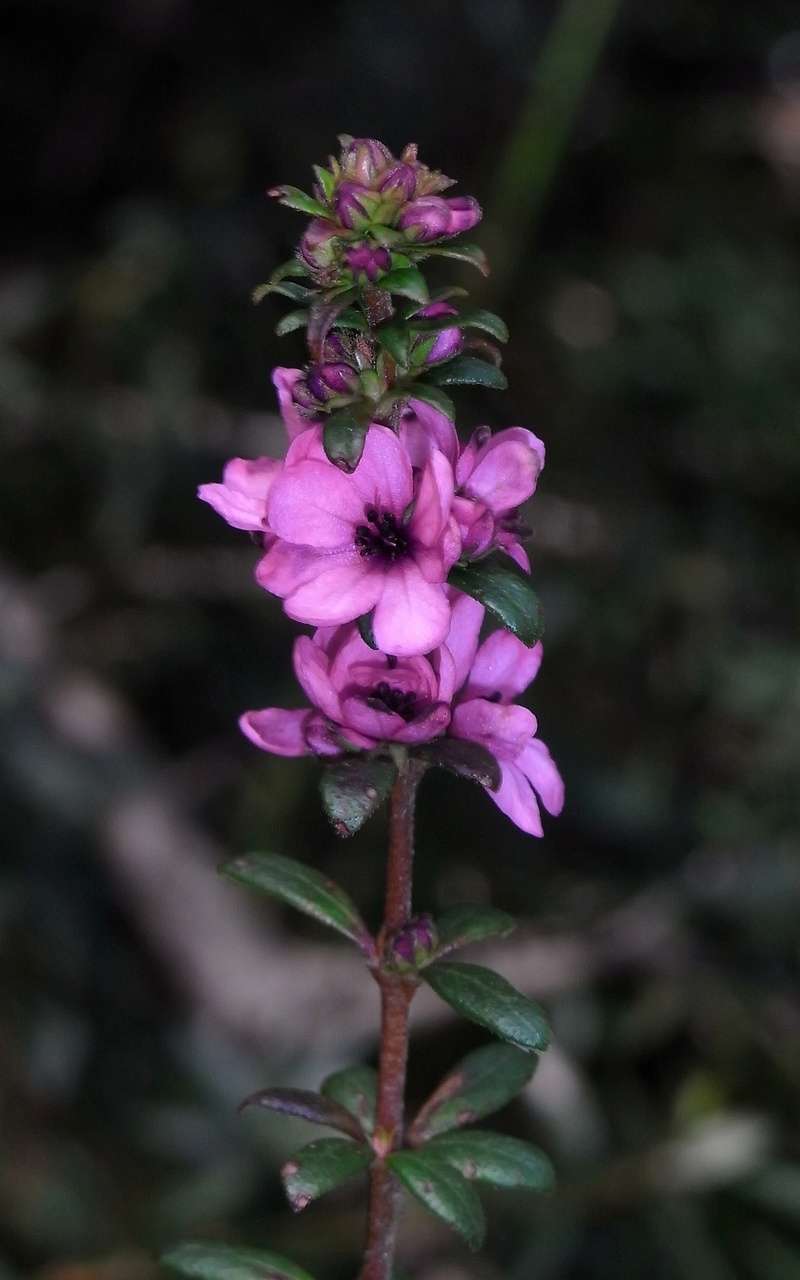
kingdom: Plantae
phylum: Tracheophyta
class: Magnoliopsida
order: Oxalidales
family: Cunoniaceae
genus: Bauera
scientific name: Bauera sessiliflora
